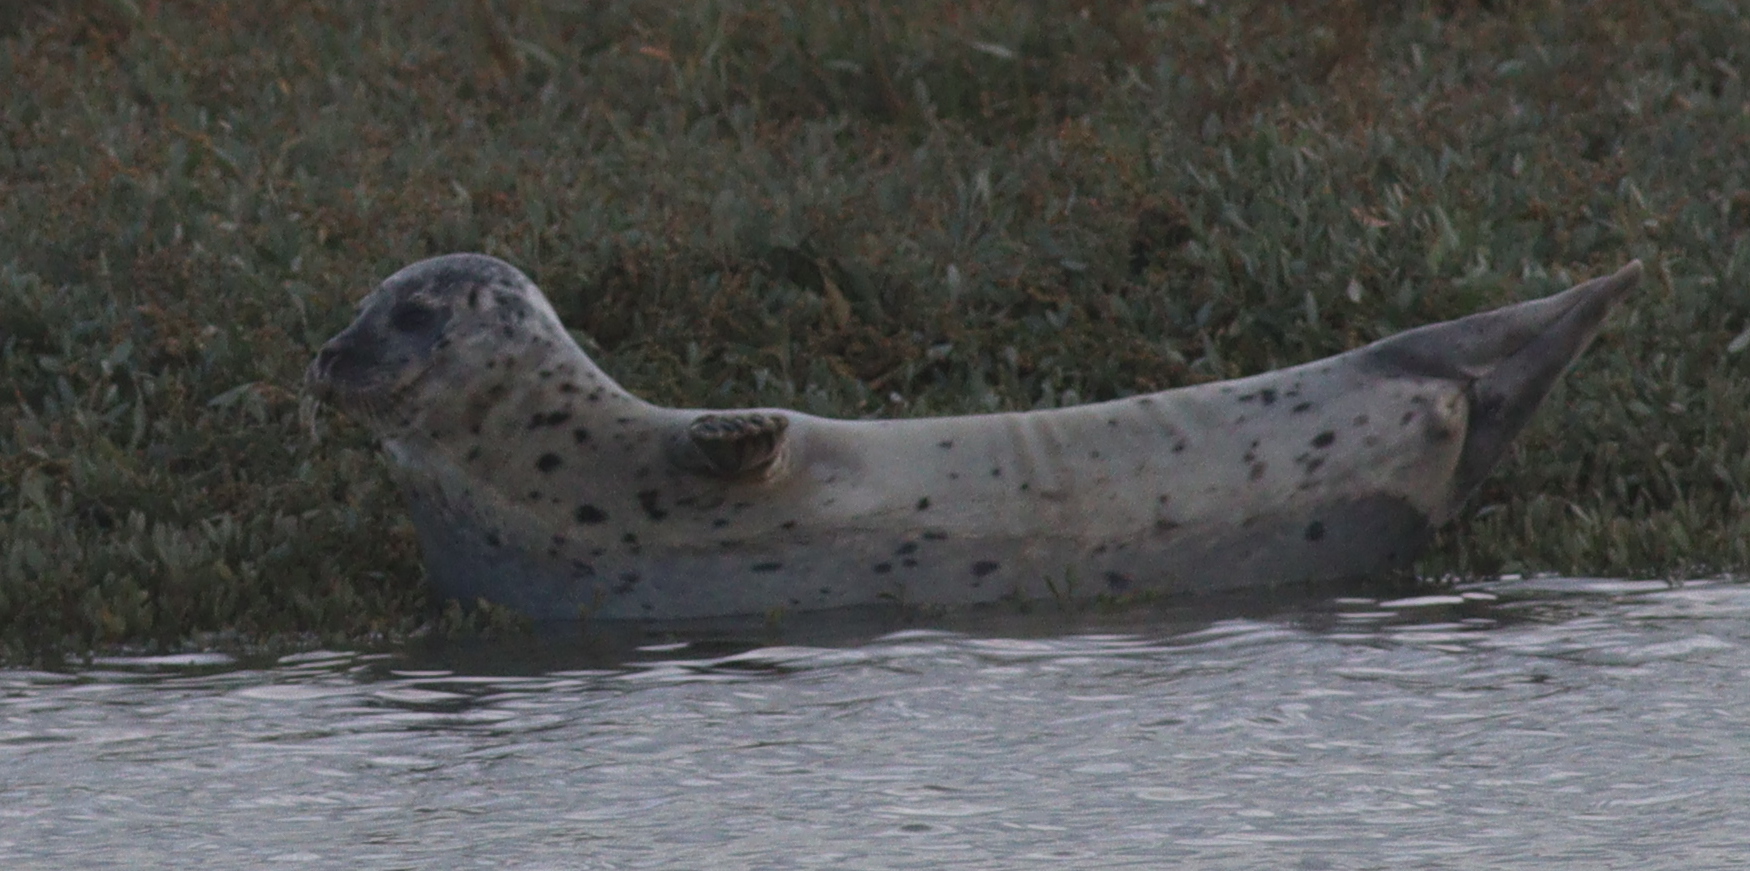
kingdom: Animalia
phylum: Chordata
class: Mammalia
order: Carnivora
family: Phocidae
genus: Phoca
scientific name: Phoca vitulina
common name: Harbor seal
